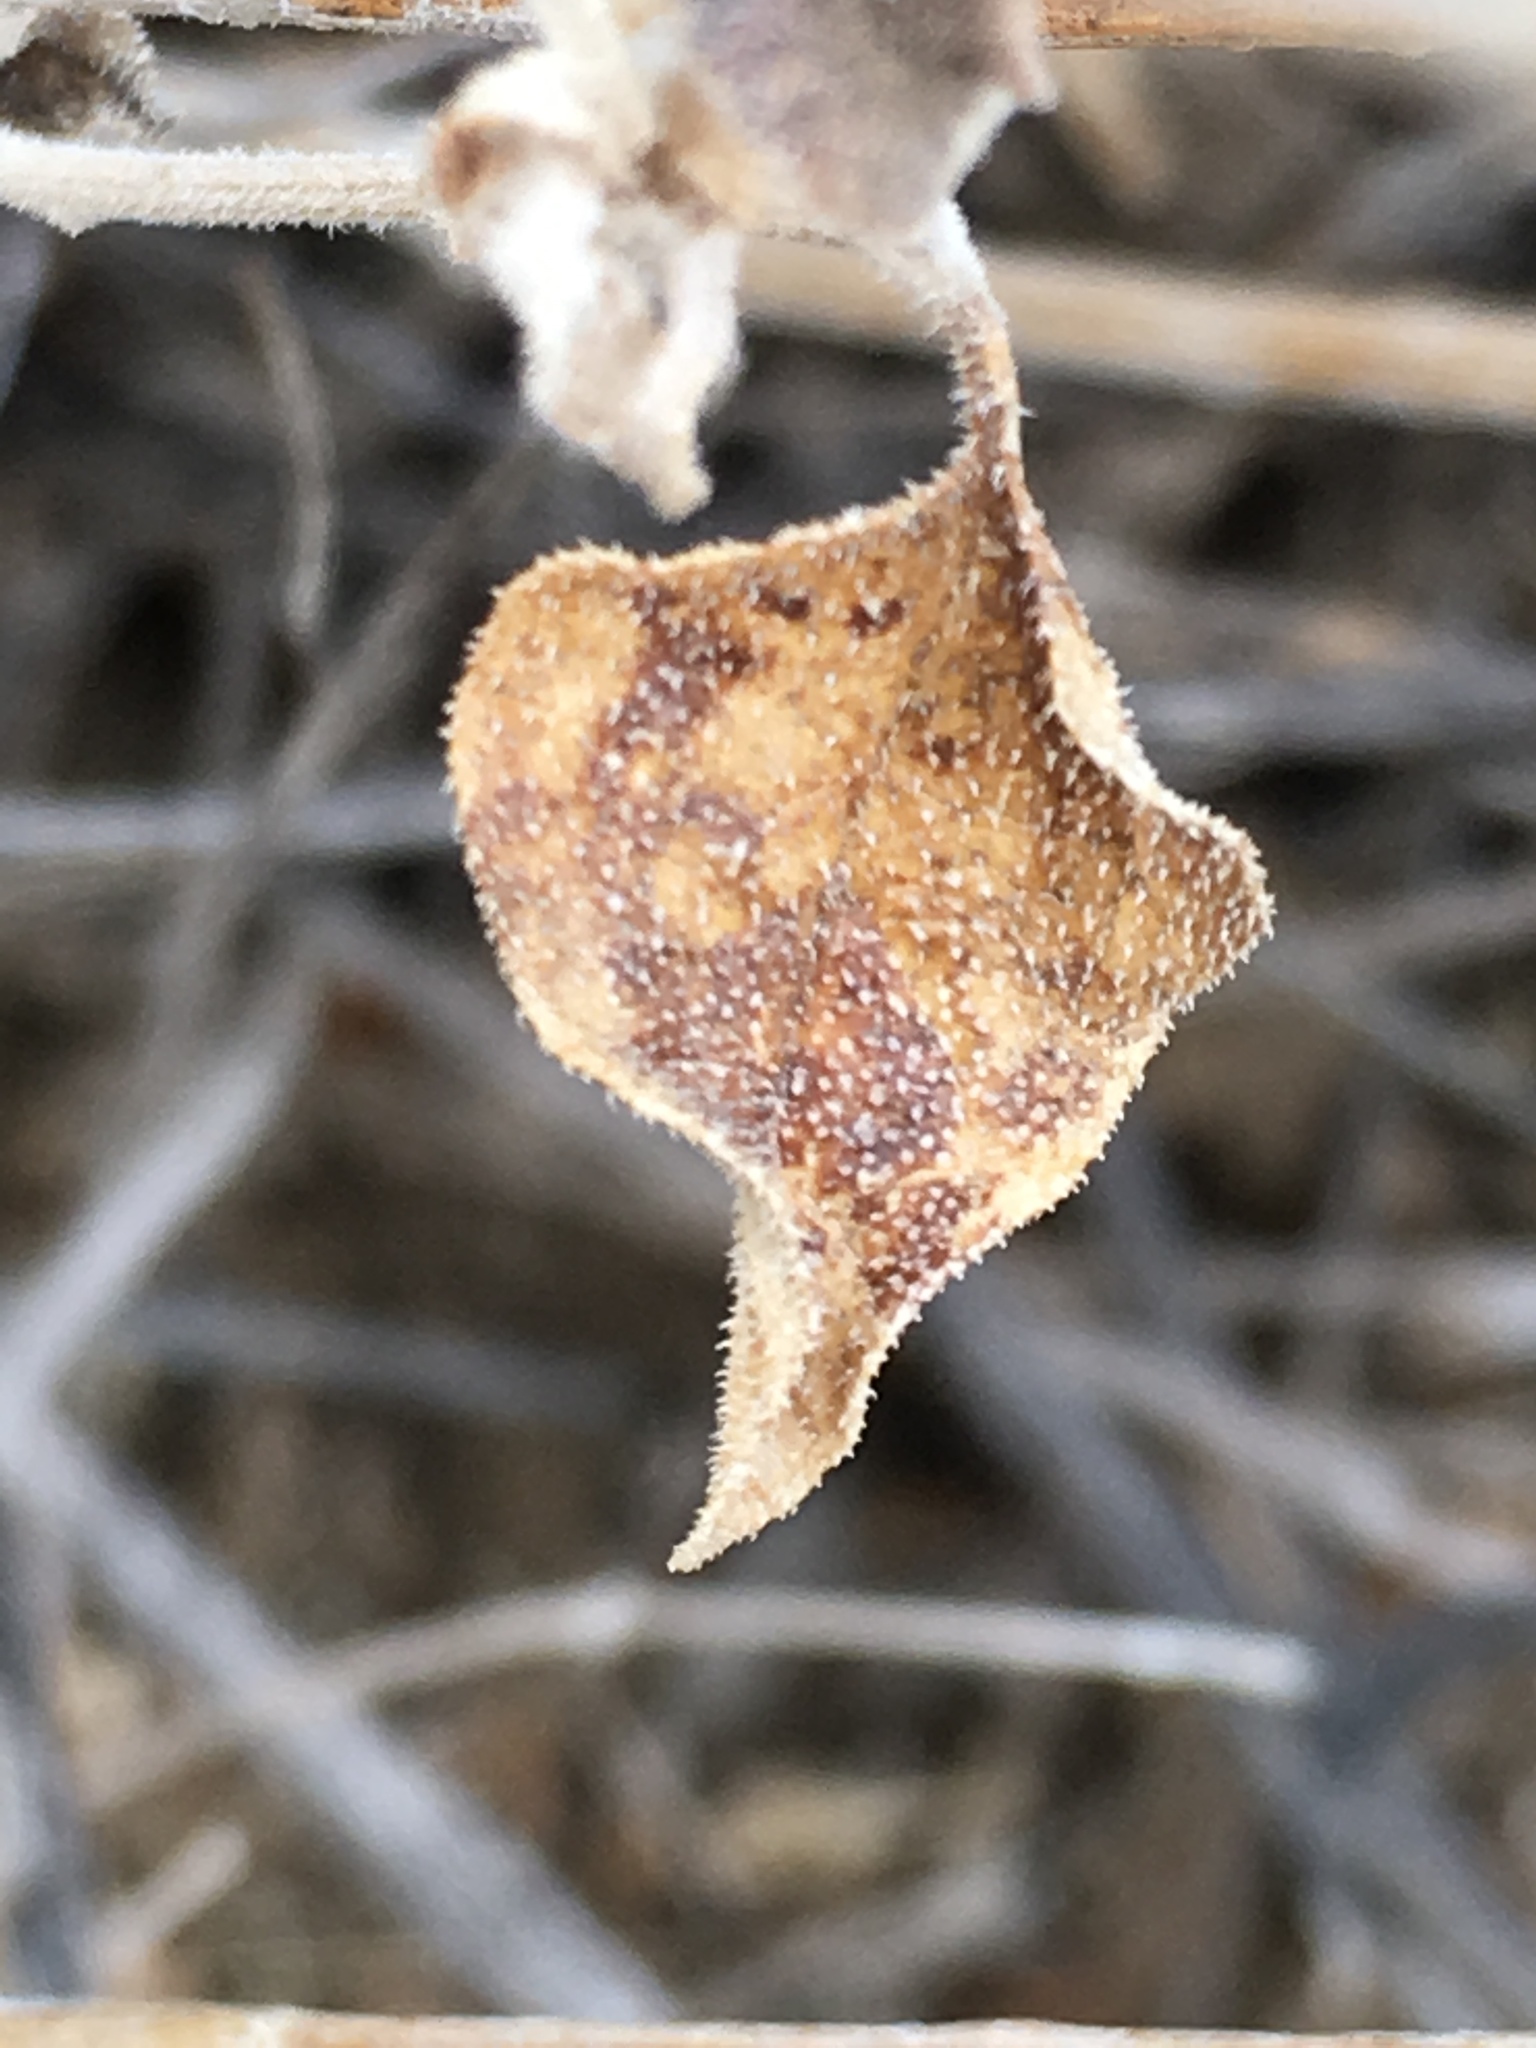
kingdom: Plantae
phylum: Tracheophyta
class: Magnoliopsida
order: Asterales
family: Asteraceae
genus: Bahiopsis
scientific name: Bahiopsis parishii
